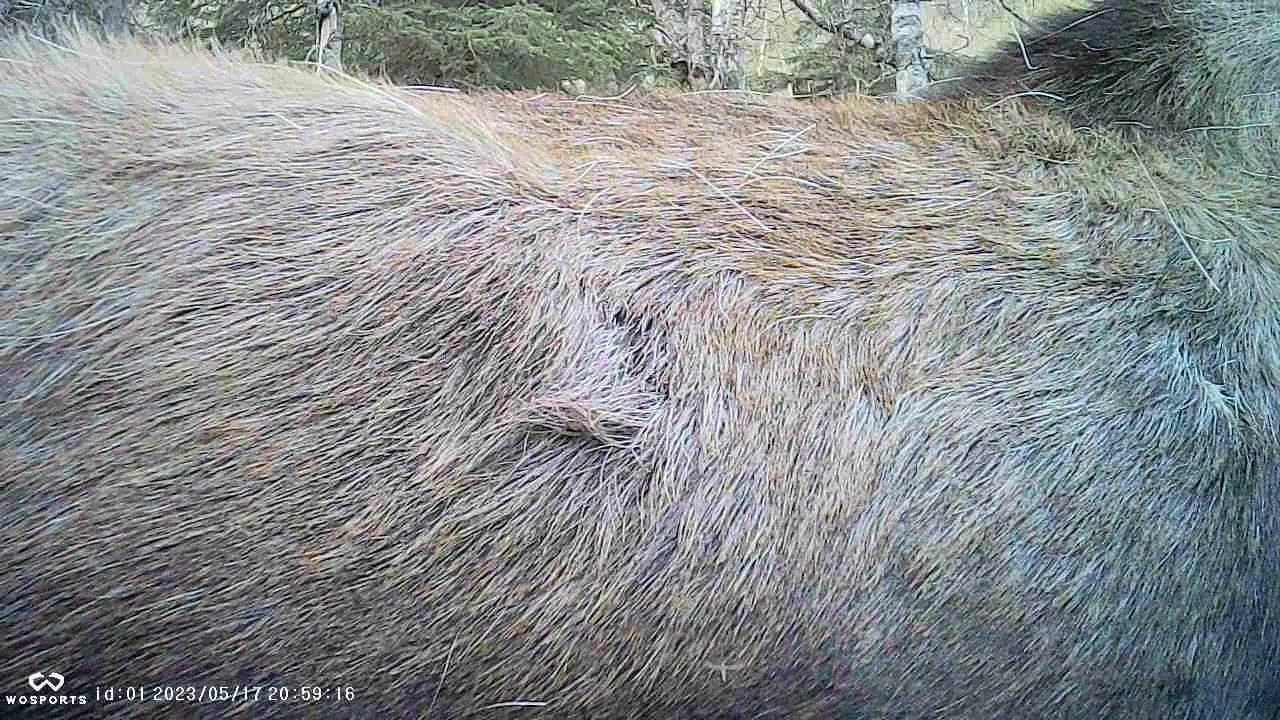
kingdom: Animalia
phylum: Chordata
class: Mammalia
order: Artiodactyla
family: Cervidae
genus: Alces
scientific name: Alces alces
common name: Moose
